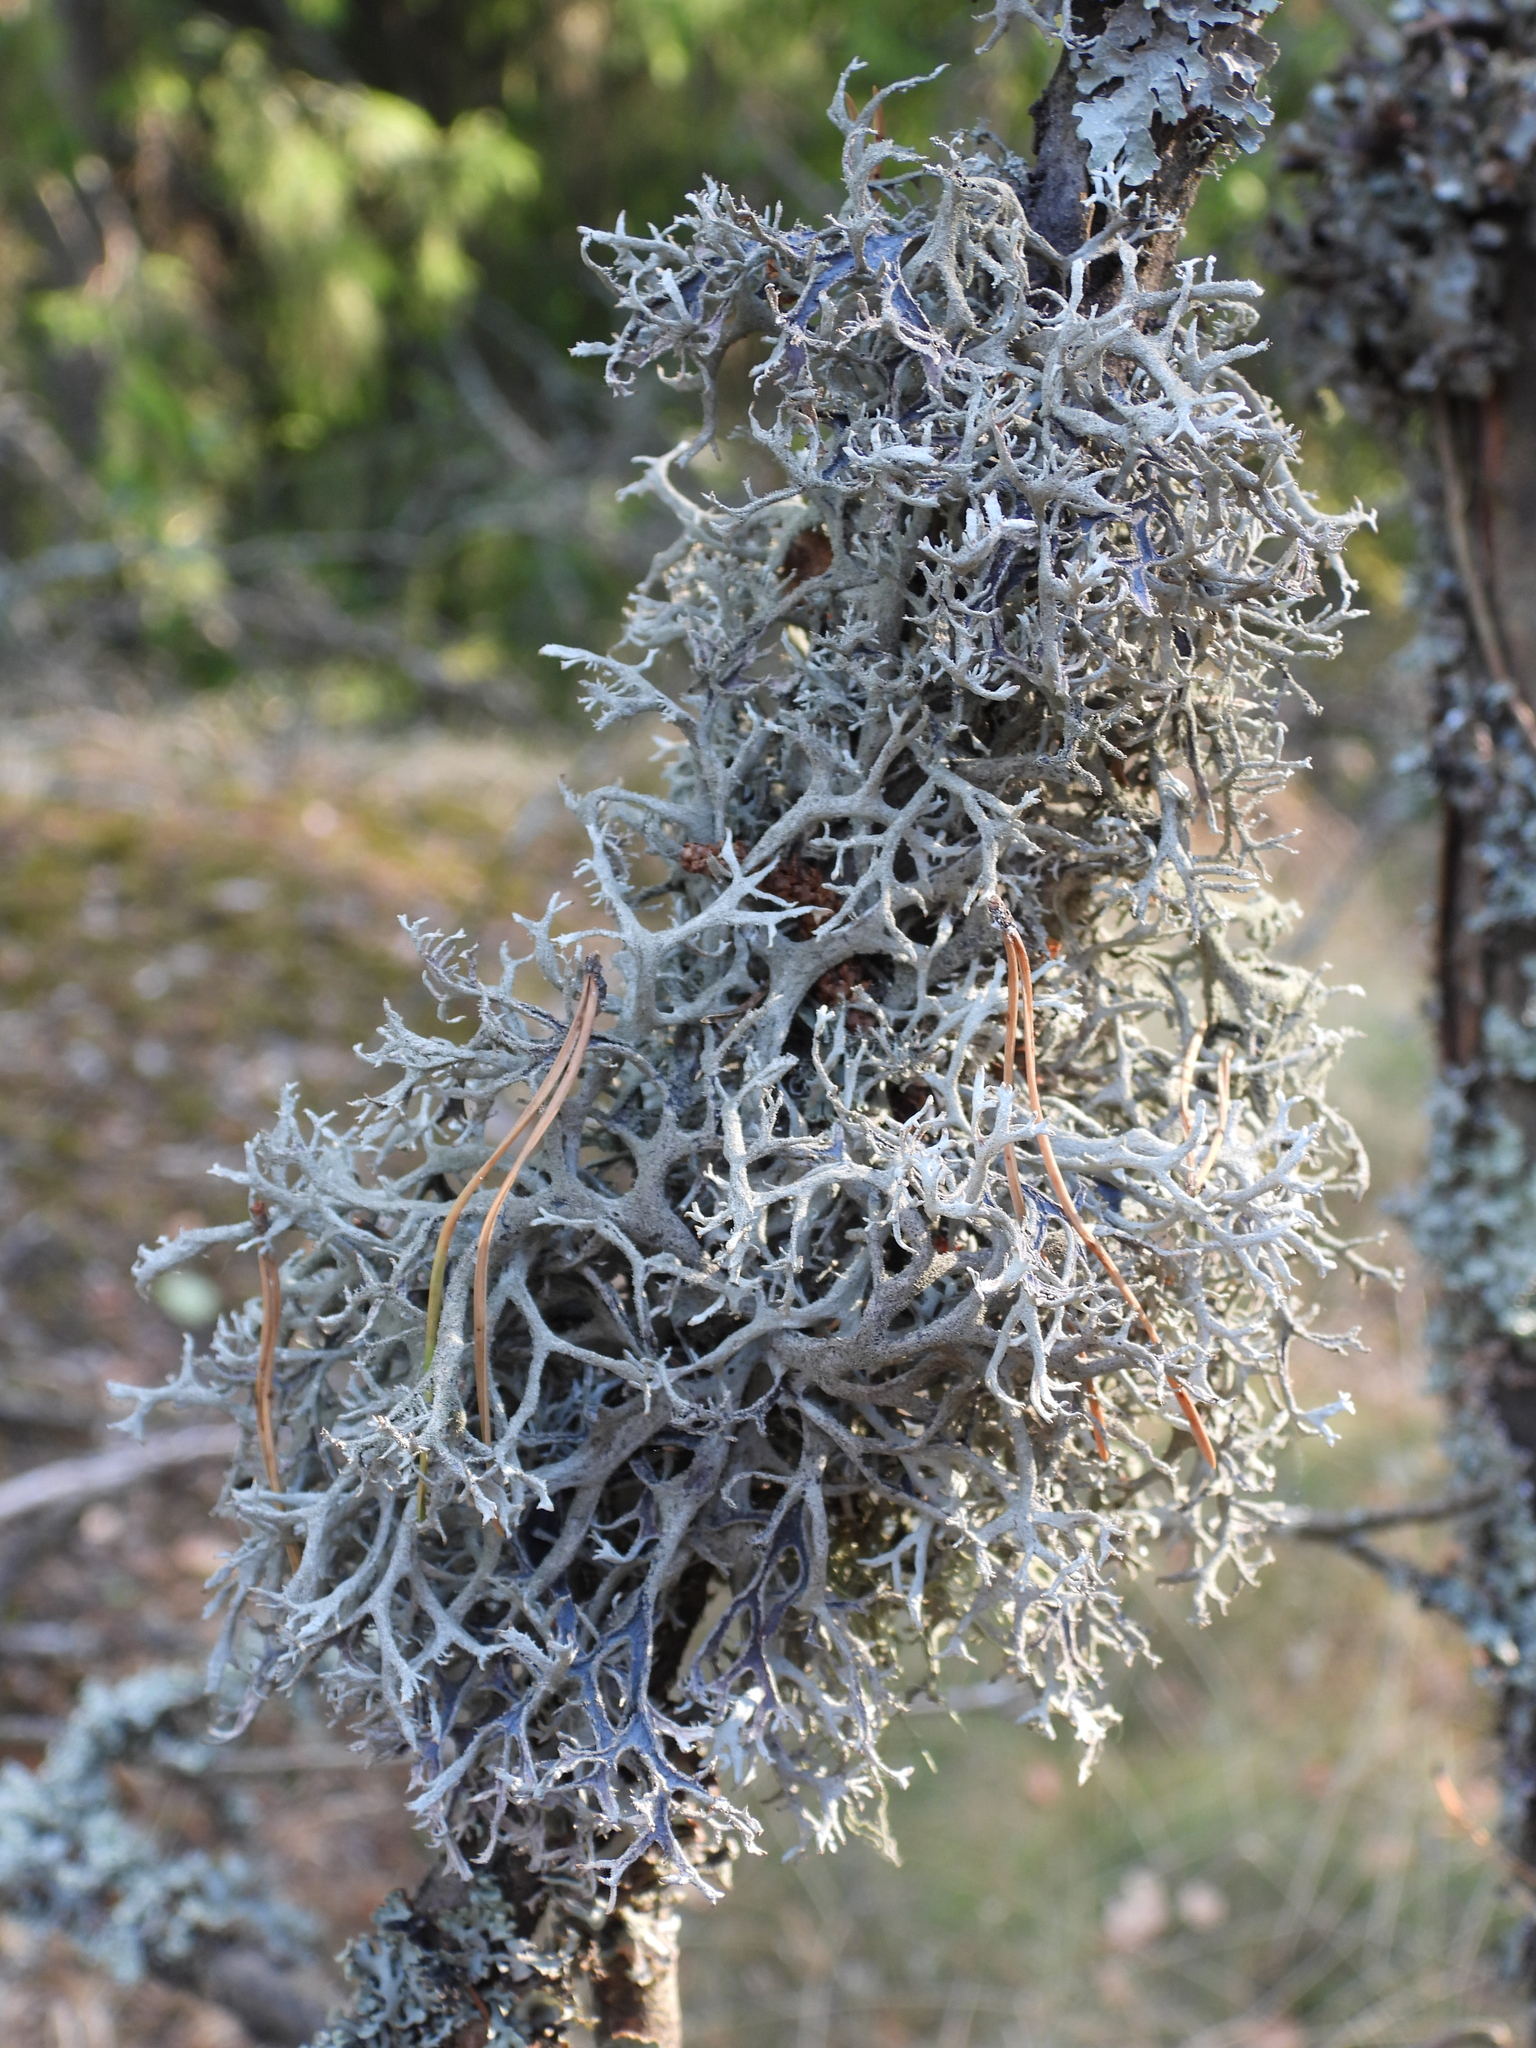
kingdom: Fungi
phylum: Ascomycota
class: Lecanoromycetes
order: Lecanorales
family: Parmeliaceae
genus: Pseudevernia
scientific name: Pseudevernia furfuracea
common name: Tree moss
